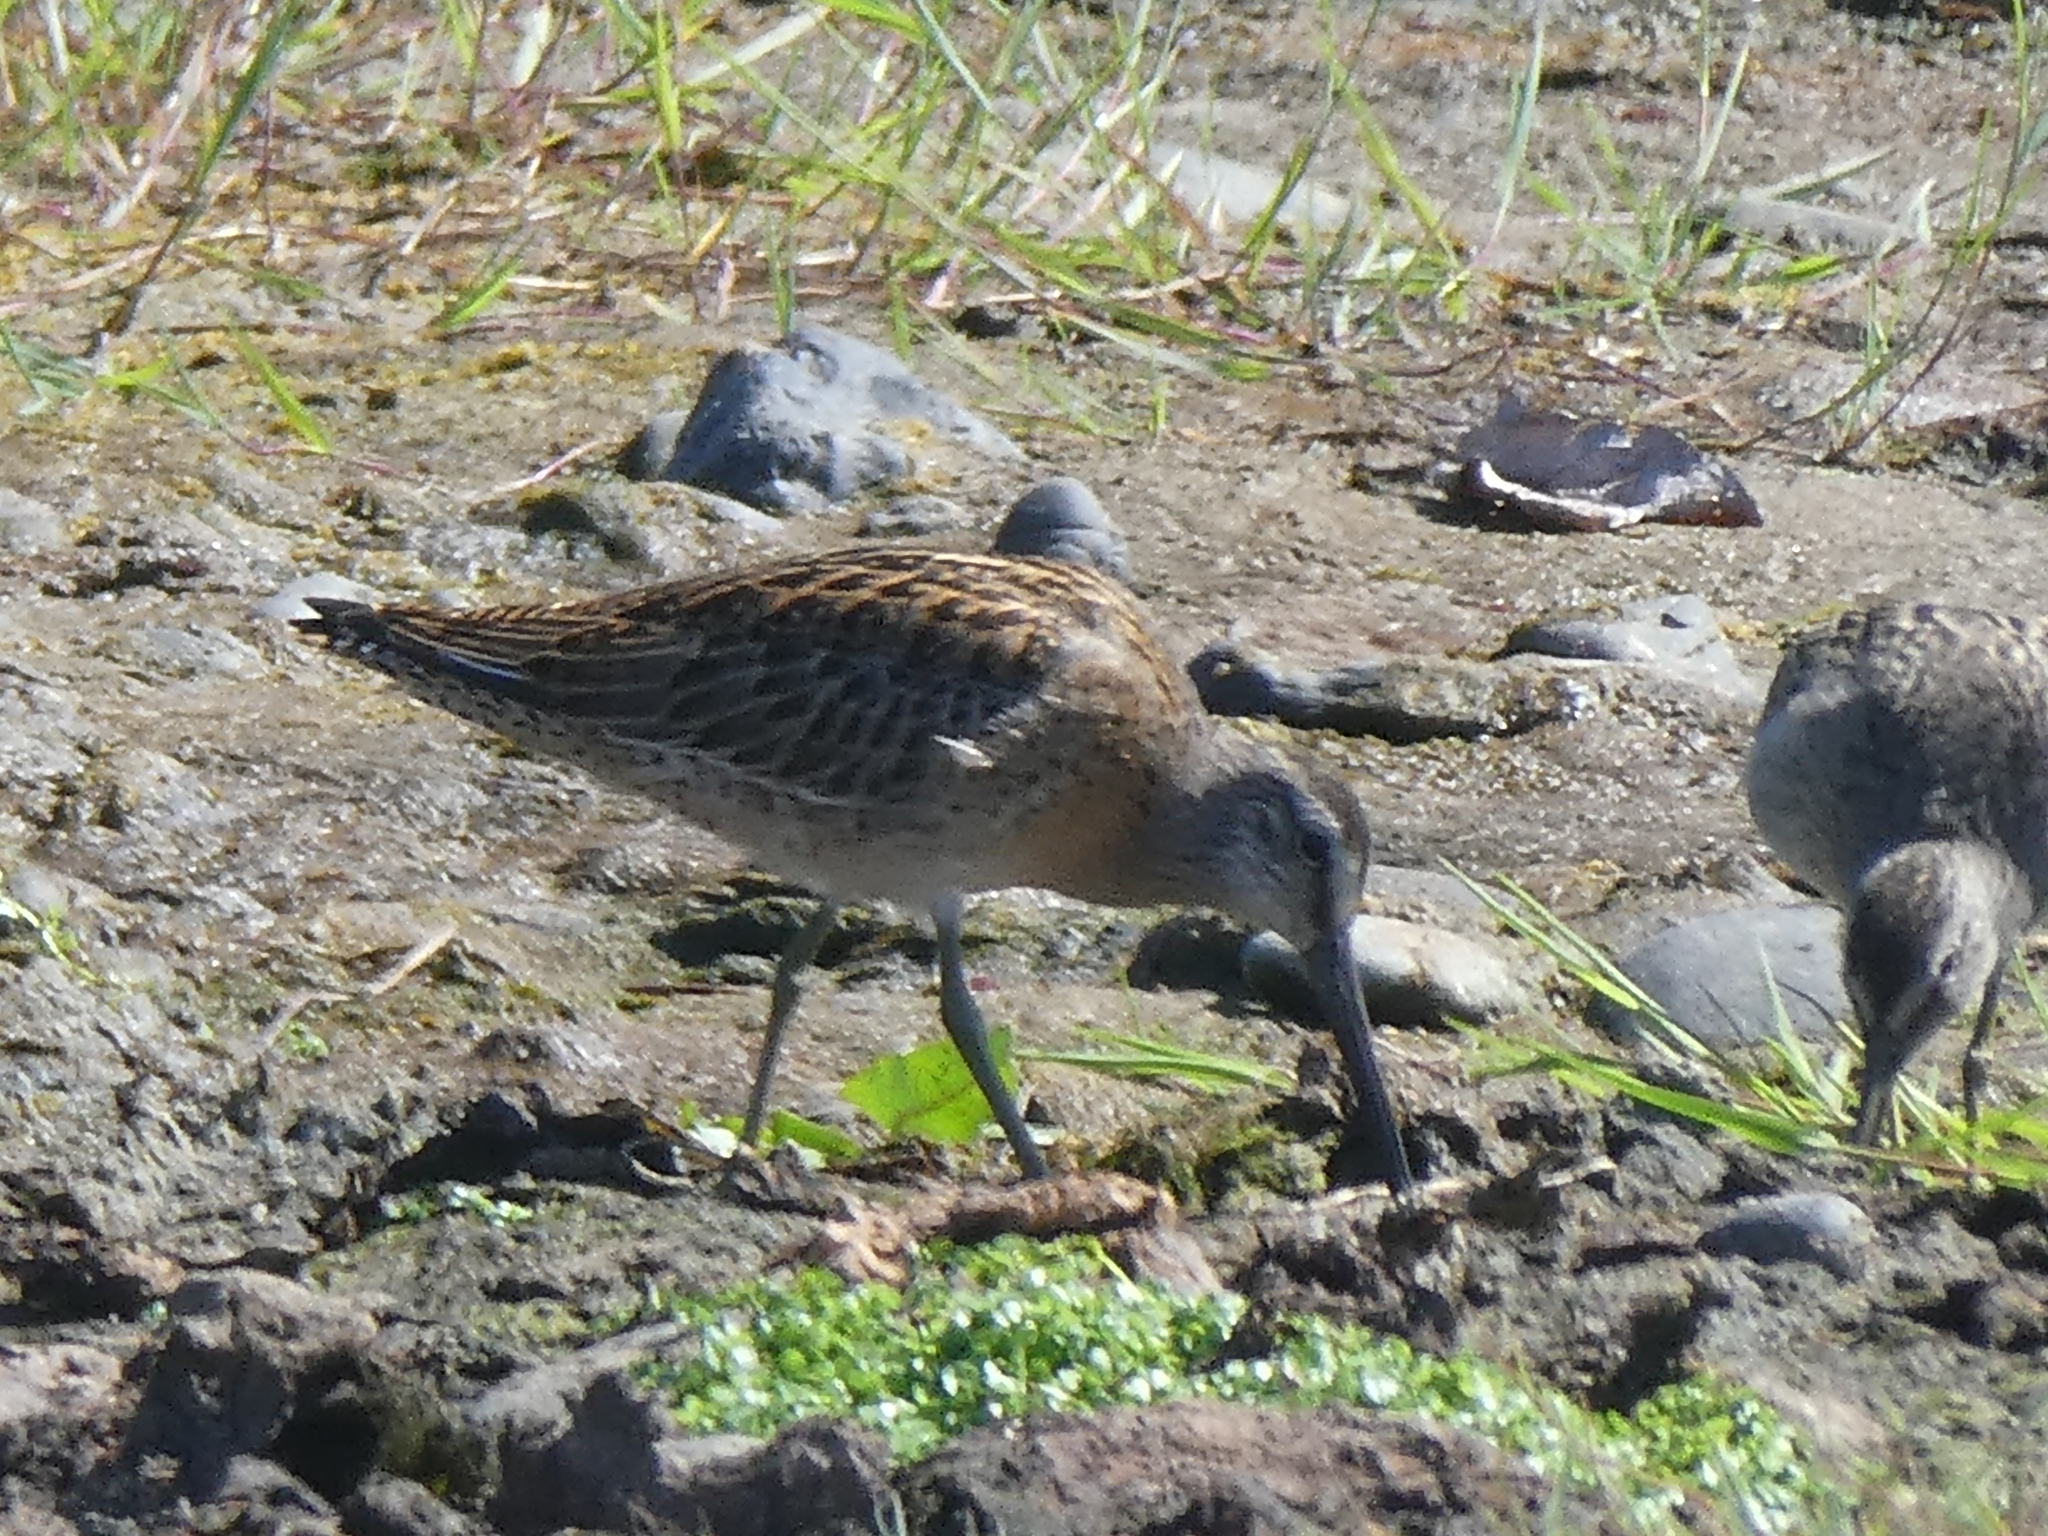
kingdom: Animalia
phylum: Chordata
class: Aves
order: Charadriiformes
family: Scolopacidae
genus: Limnodromus
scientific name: Limnodromus griseus
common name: Short-billed dowitcher
